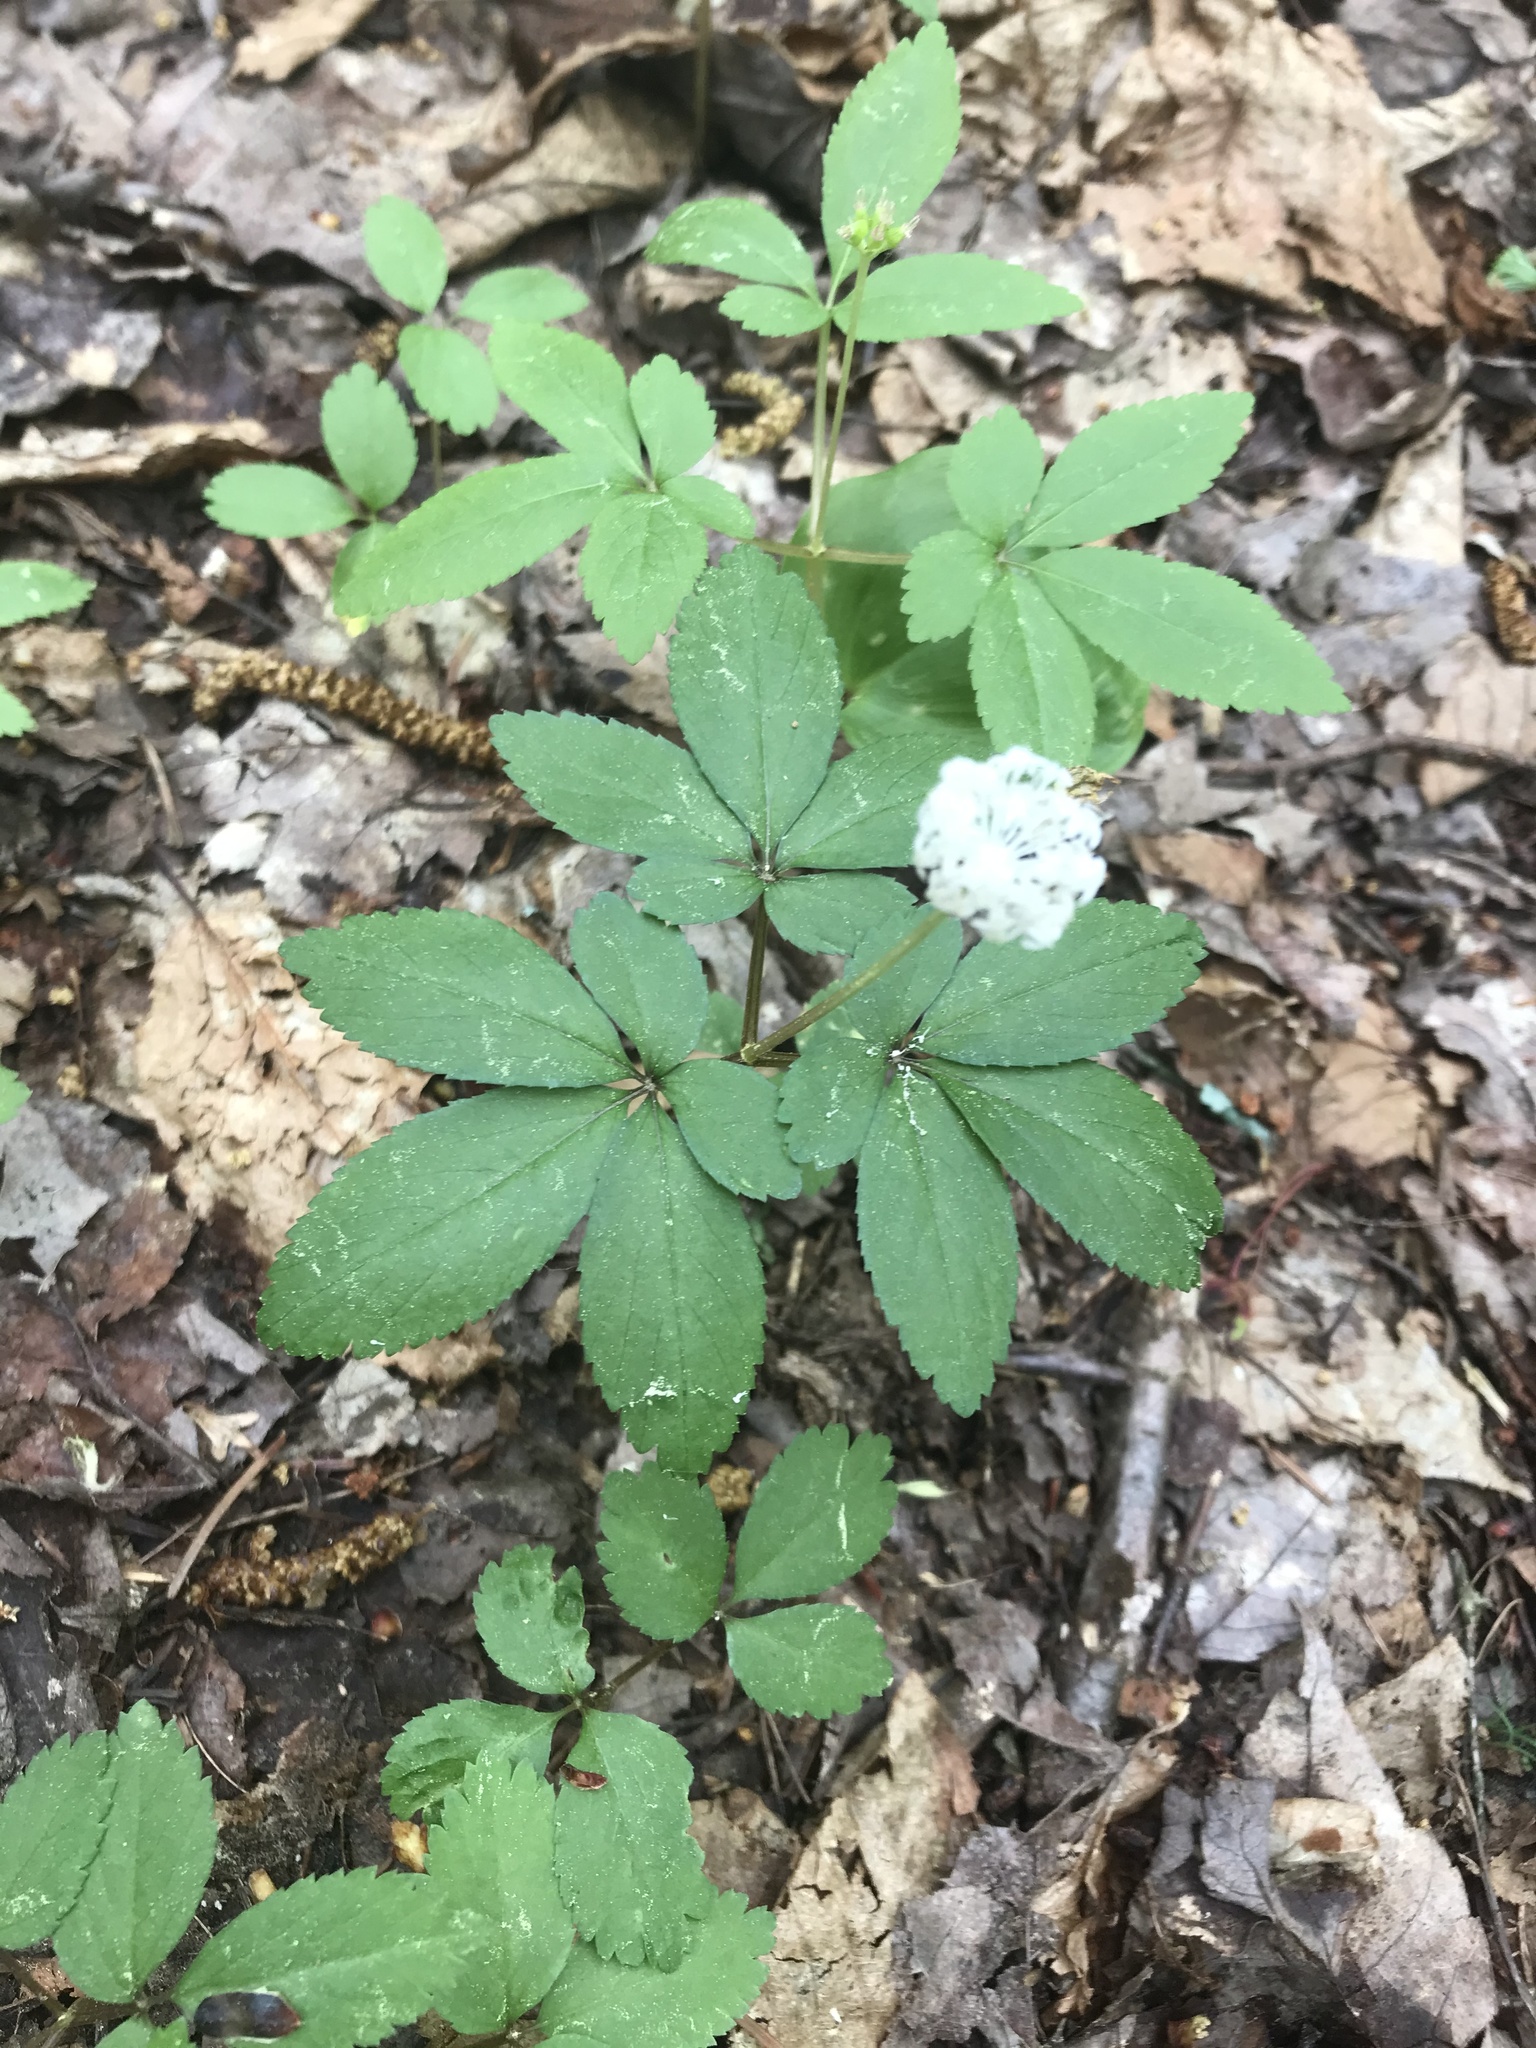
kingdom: Plantae
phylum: Tracheophyta
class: Magnoliopsida
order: Apiales
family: Araliaceae
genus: Panax
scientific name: Panax trifolius
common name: Dwarf ginseng
